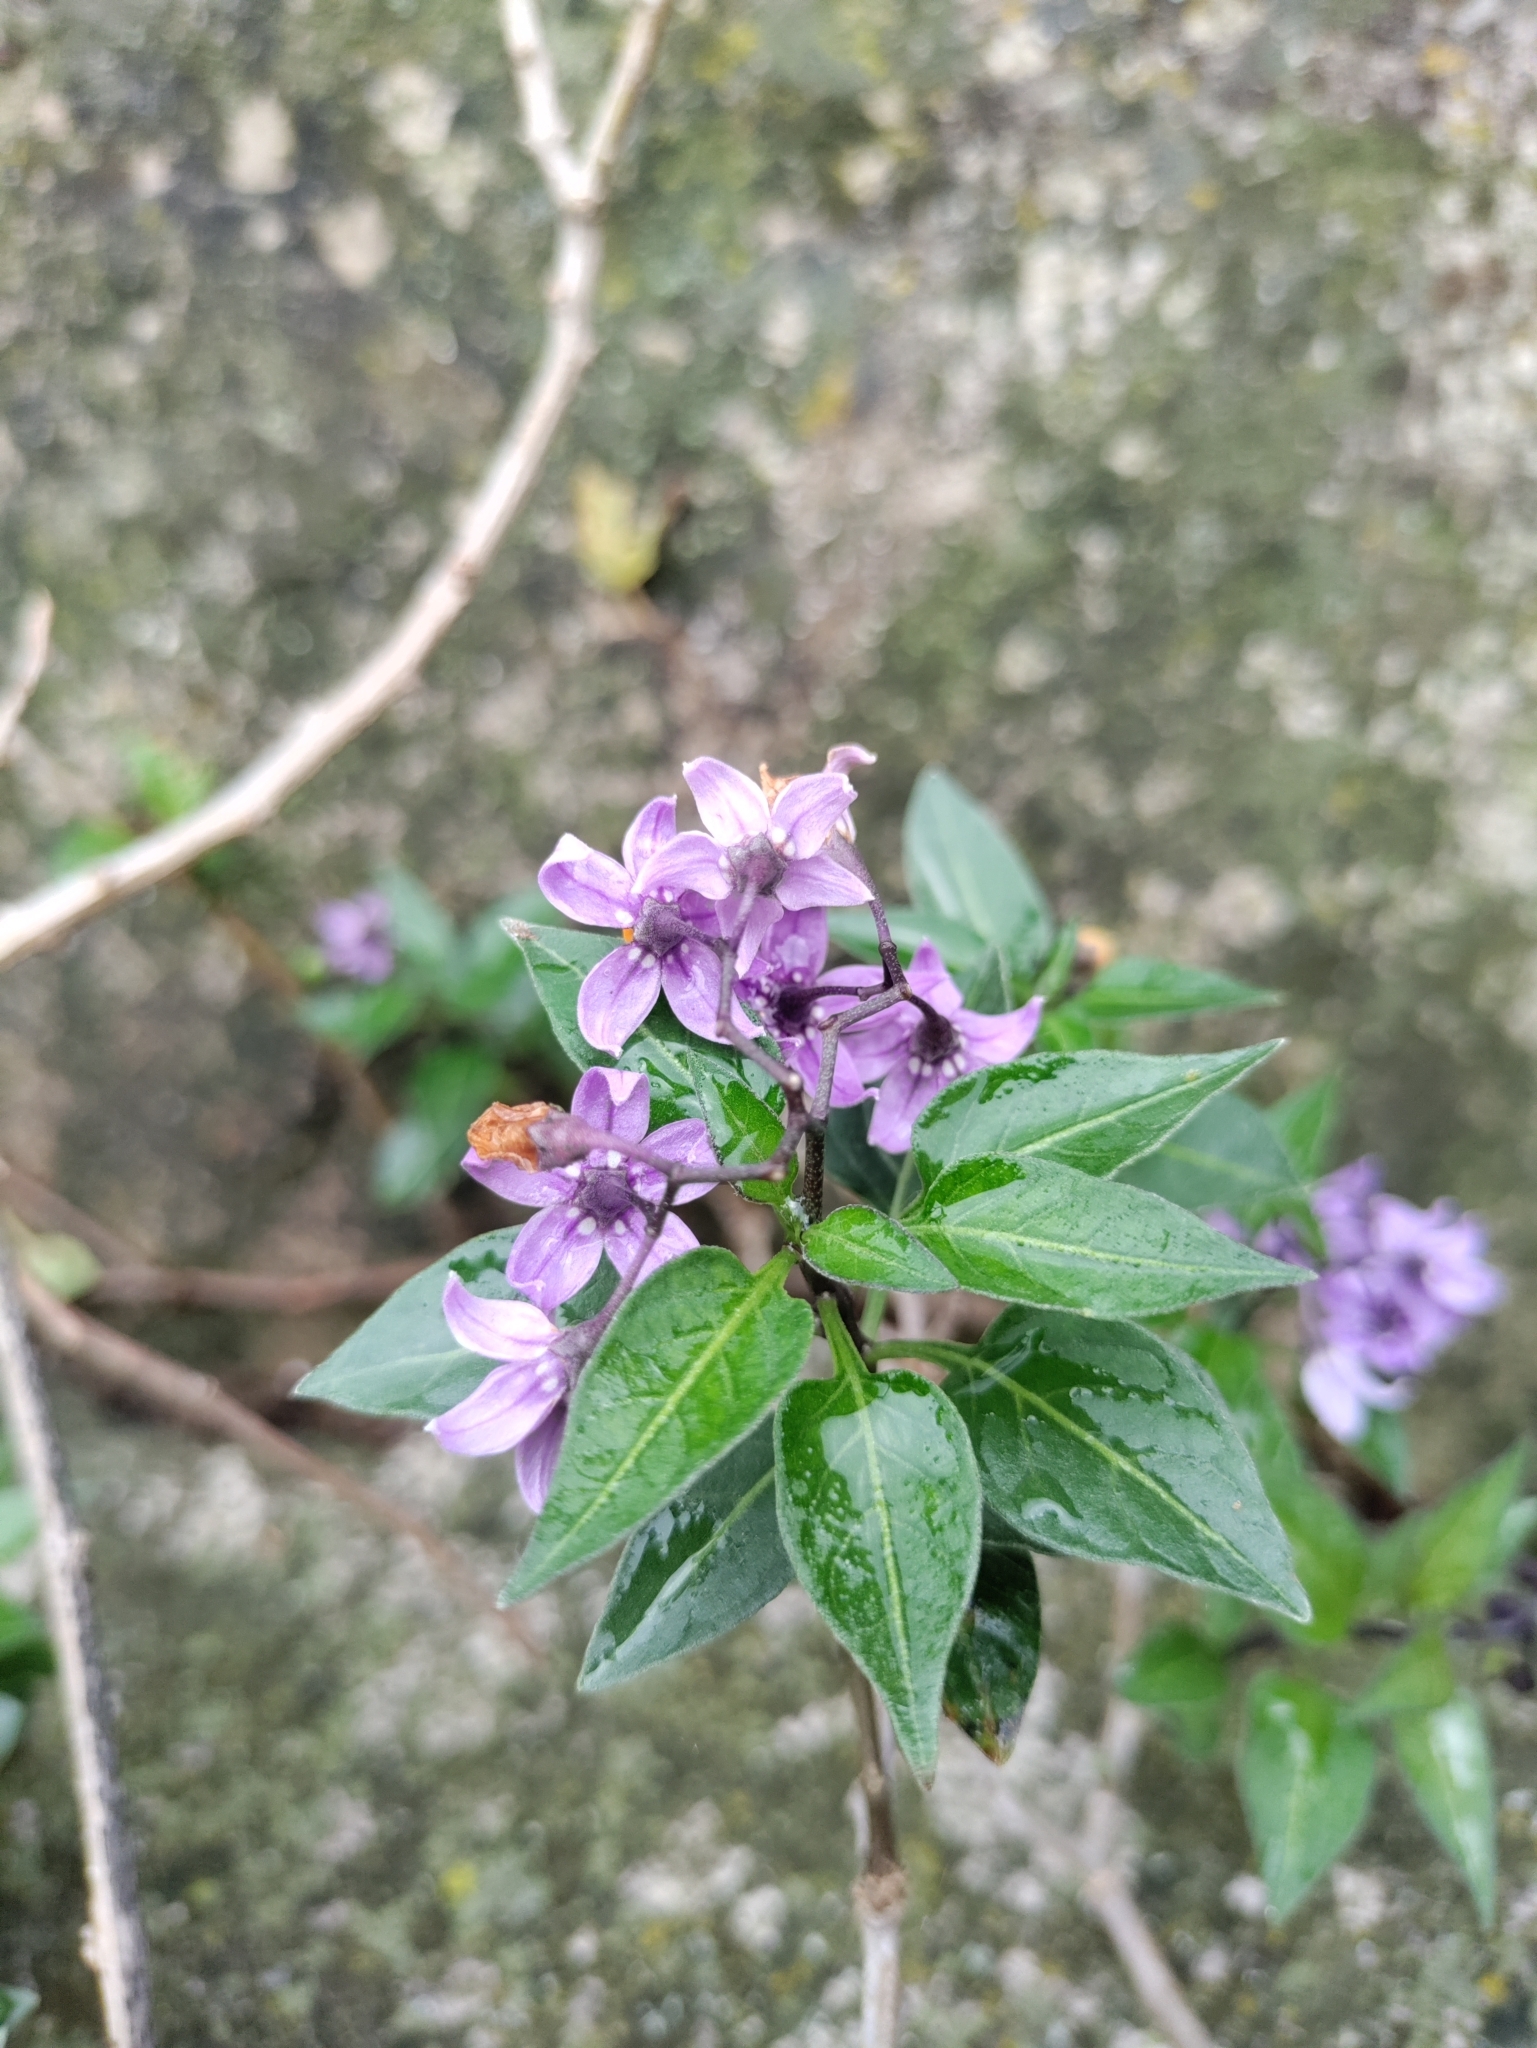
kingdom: Plantae
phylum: Tracheophyta
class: Magnoliopsida
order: Solanales
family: Solanaceae
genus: Solanum
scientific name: Solanum dulcamara
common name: Climbing nightshade
